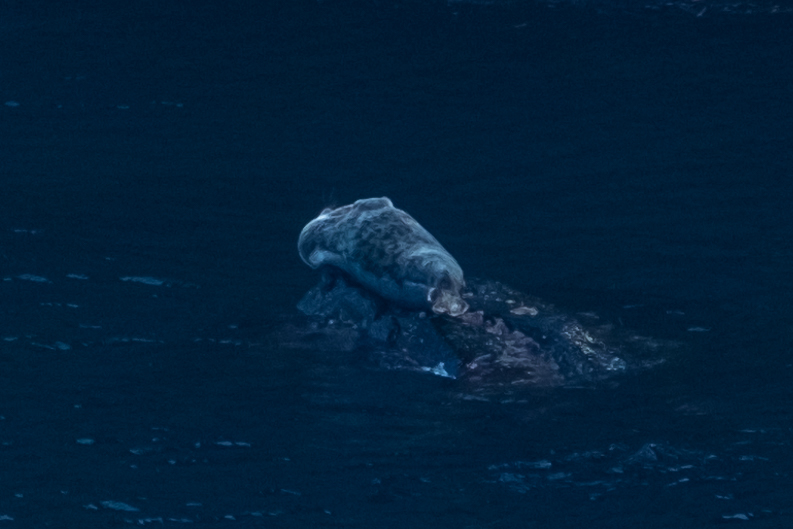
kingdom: Animalia
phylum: Chordata
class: Mammalia
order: Carnivora
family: Phocidae
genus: Halichoerus
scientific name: Halichoerus grypus
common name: Grey seal
